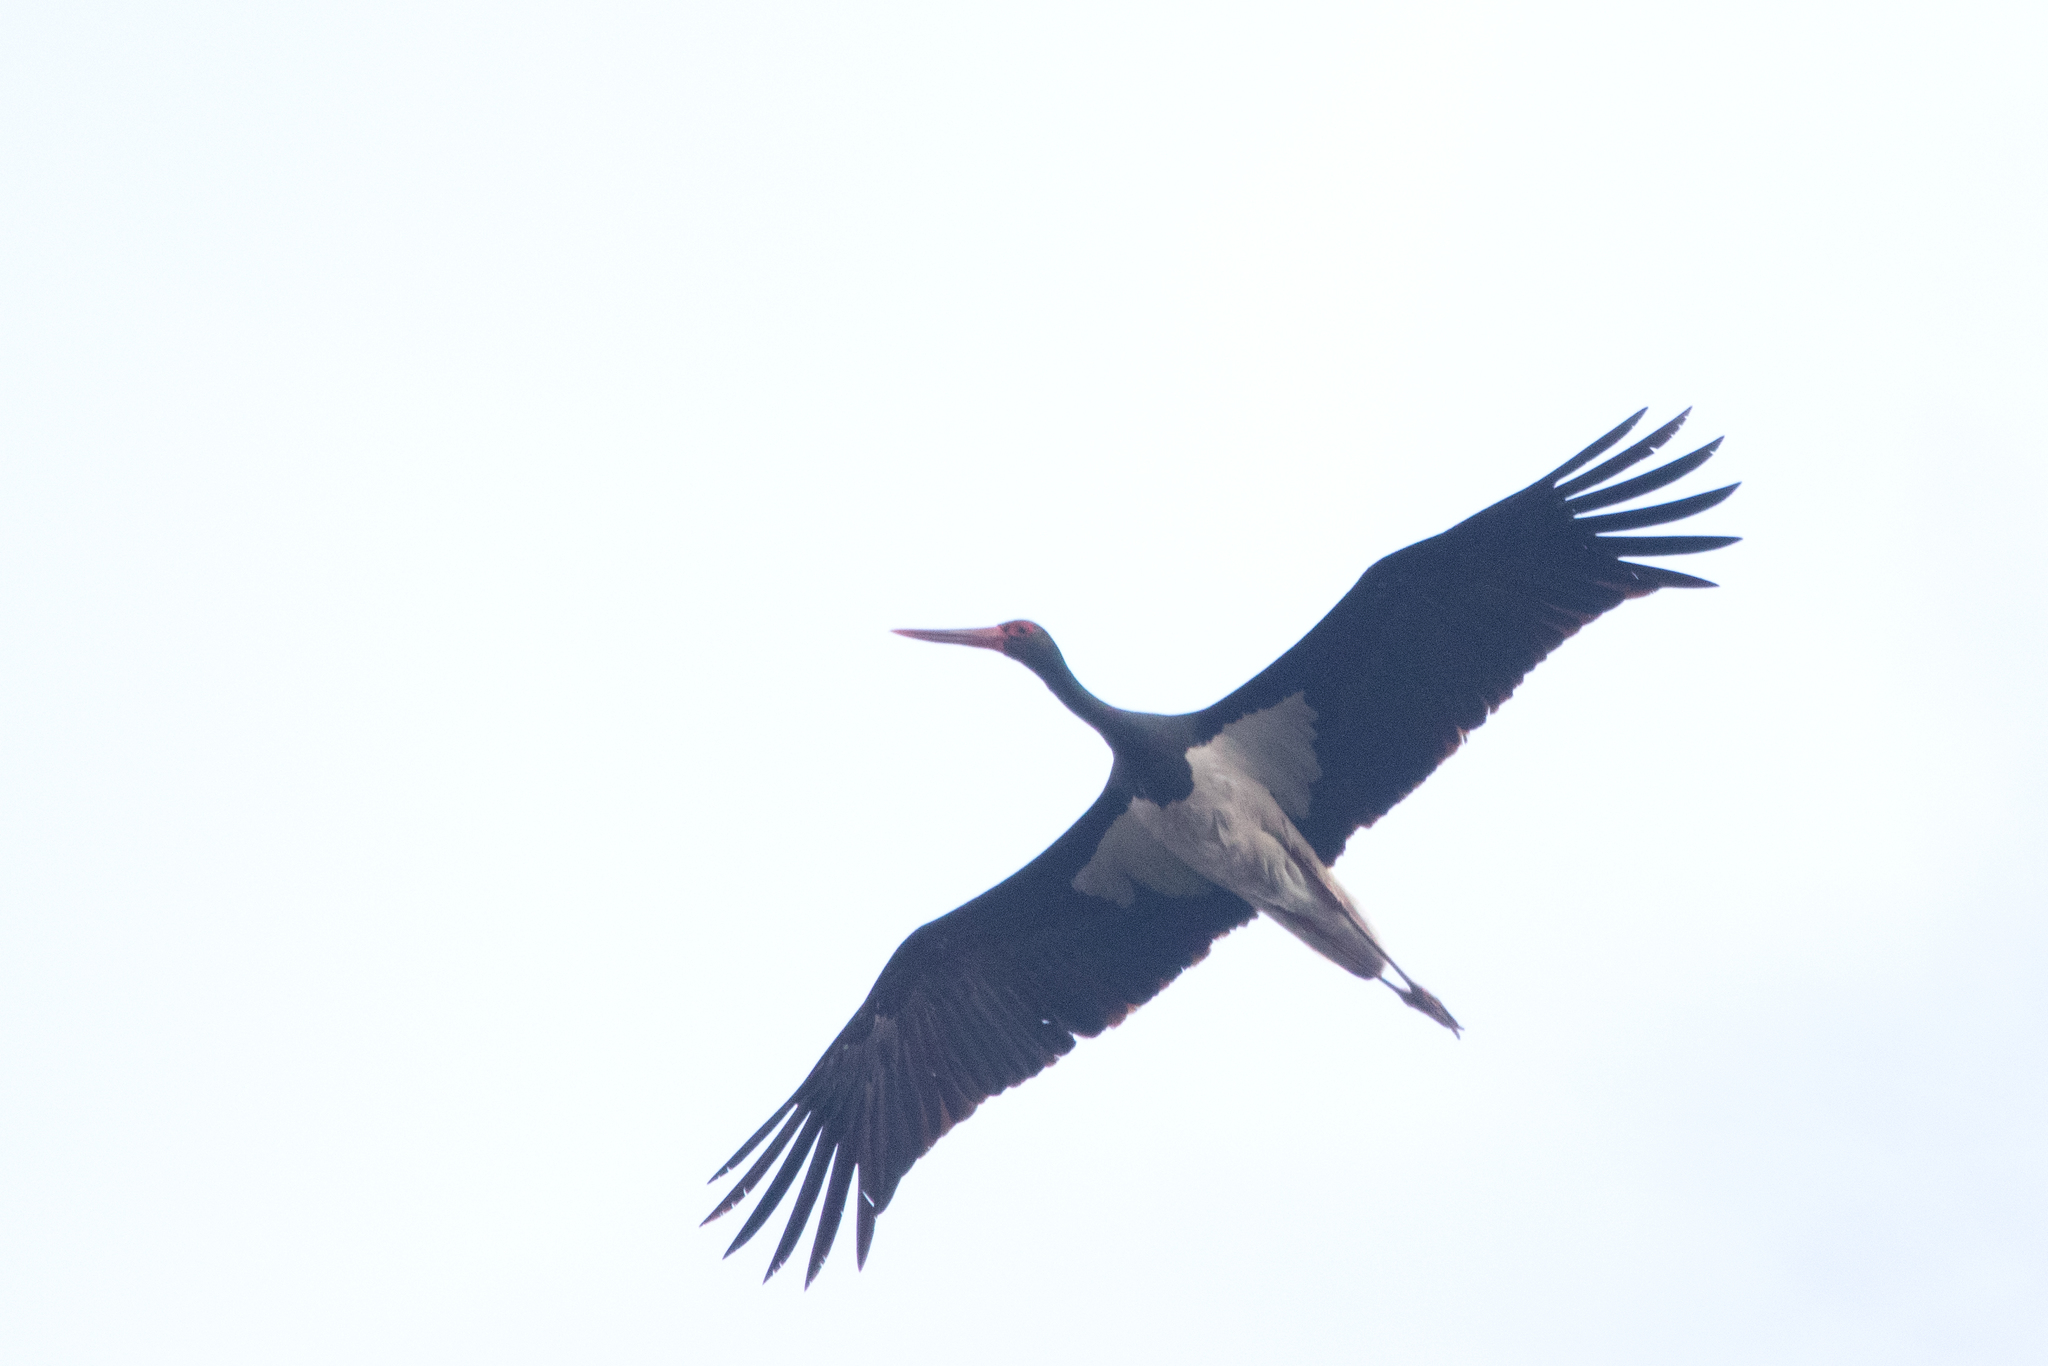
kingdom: Animalia
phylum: Chordata
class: Aves
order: Ciconiiformes
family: Ciconiidae
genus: Ciconia
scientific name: Ciconia nigra
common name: Black stork
